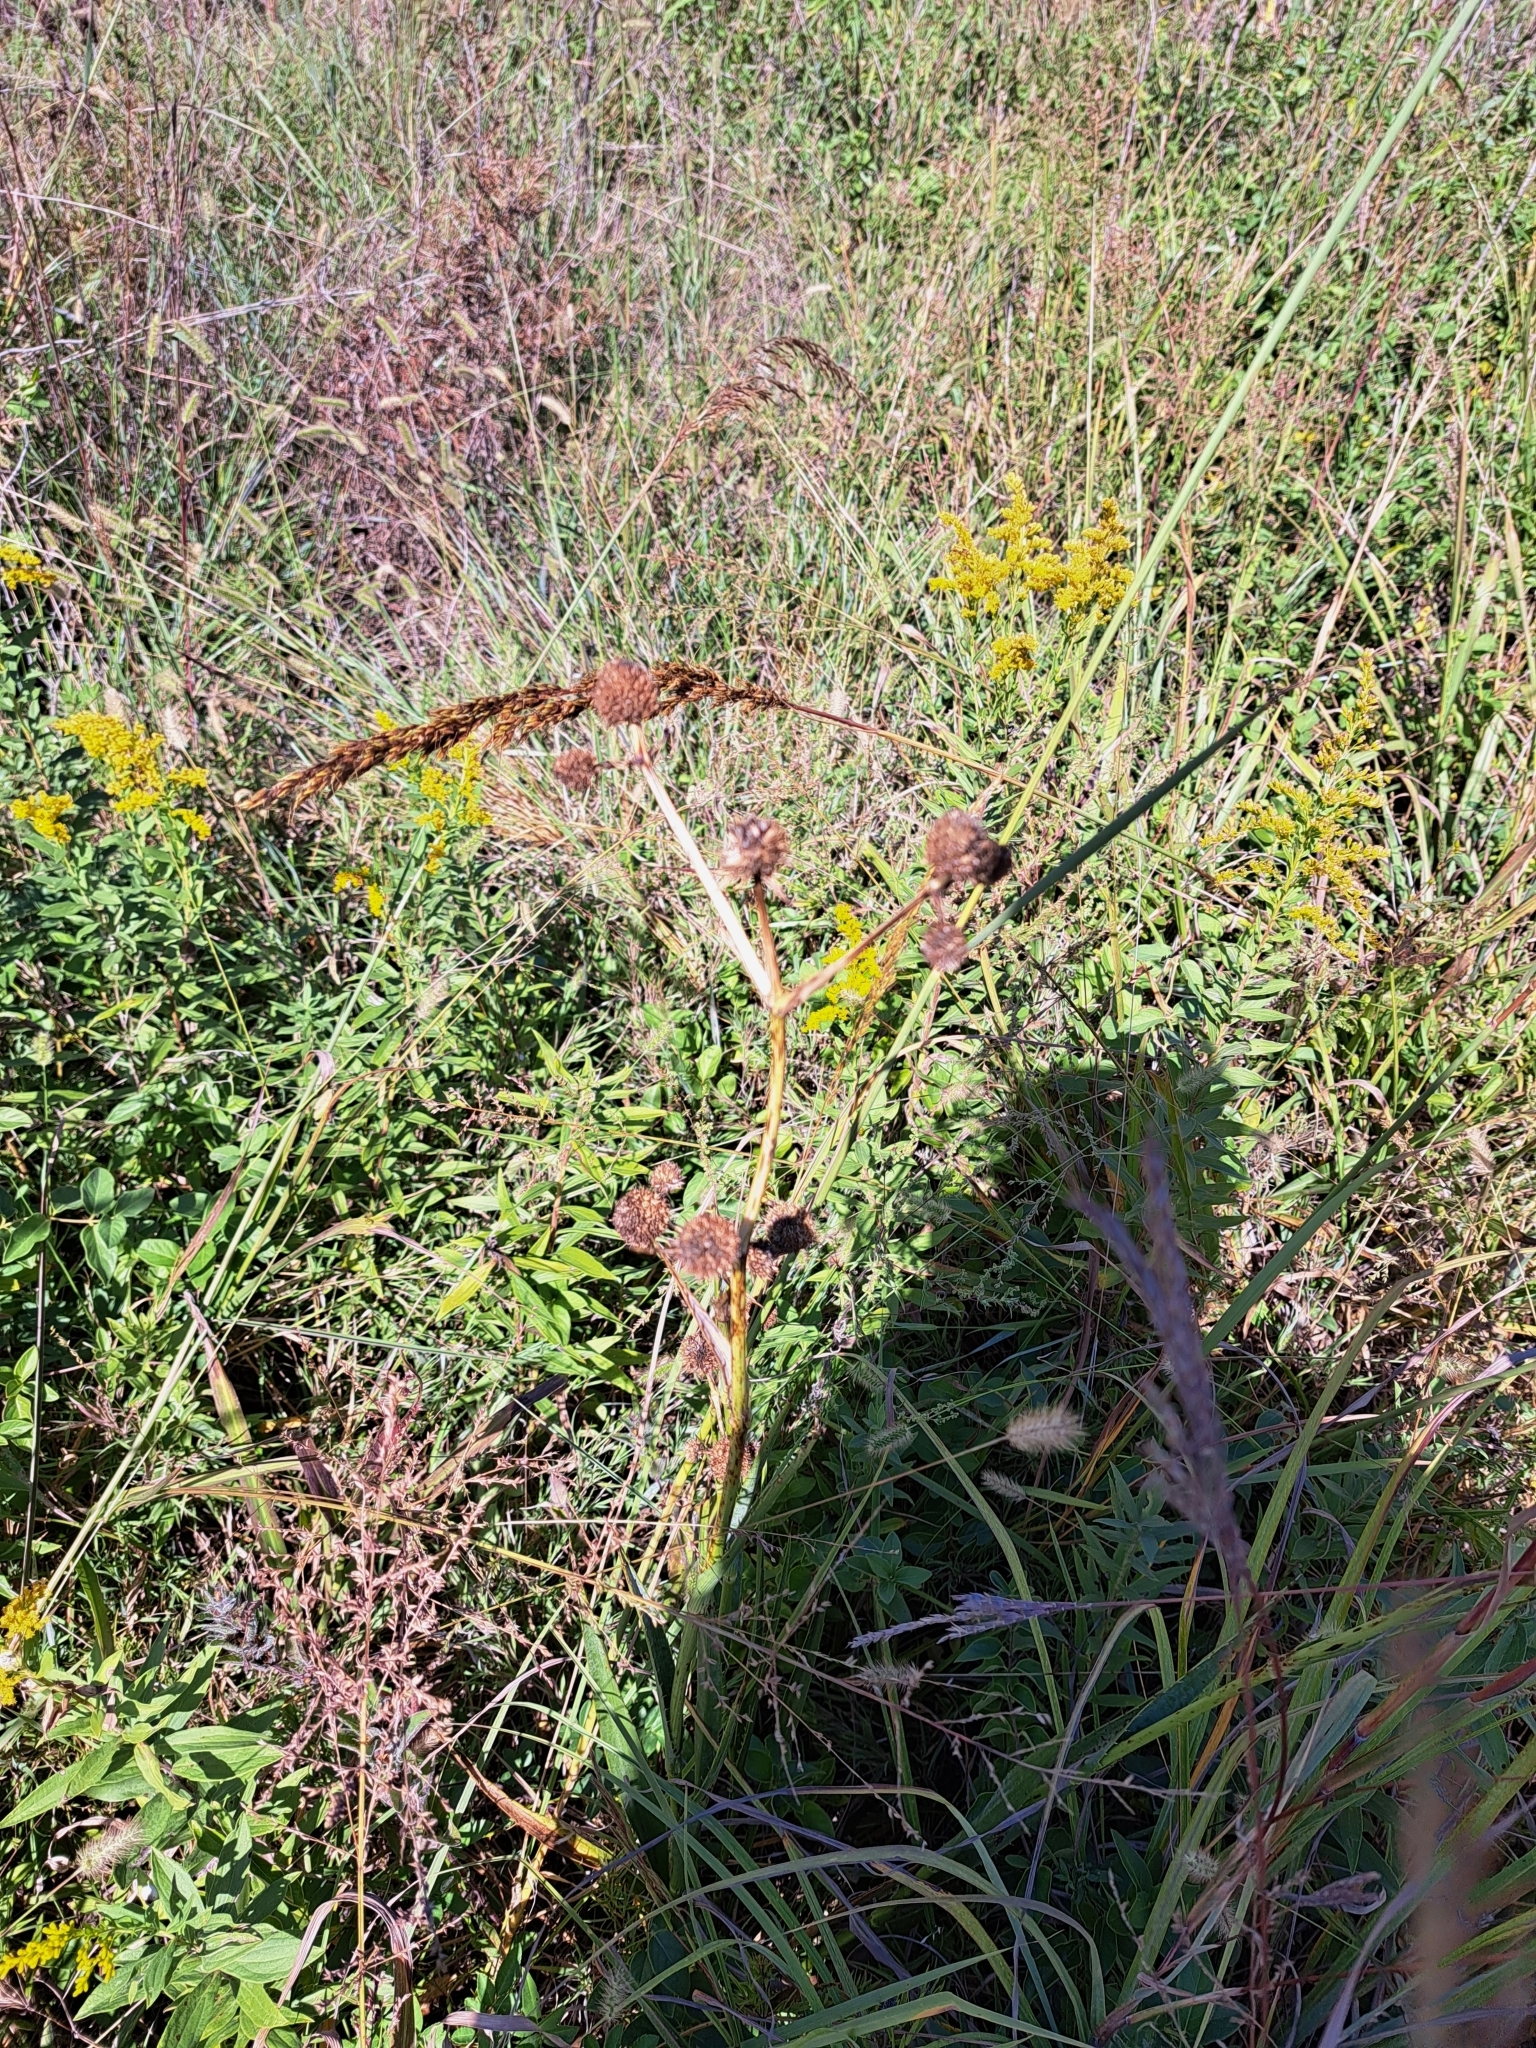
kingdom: Plantae
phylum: Tracheophyta
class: Magnoliopsida
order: Apiales
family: Apiaceae
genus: Eryngium
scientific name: Eryngium yuccifolium
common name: Button eryngo
